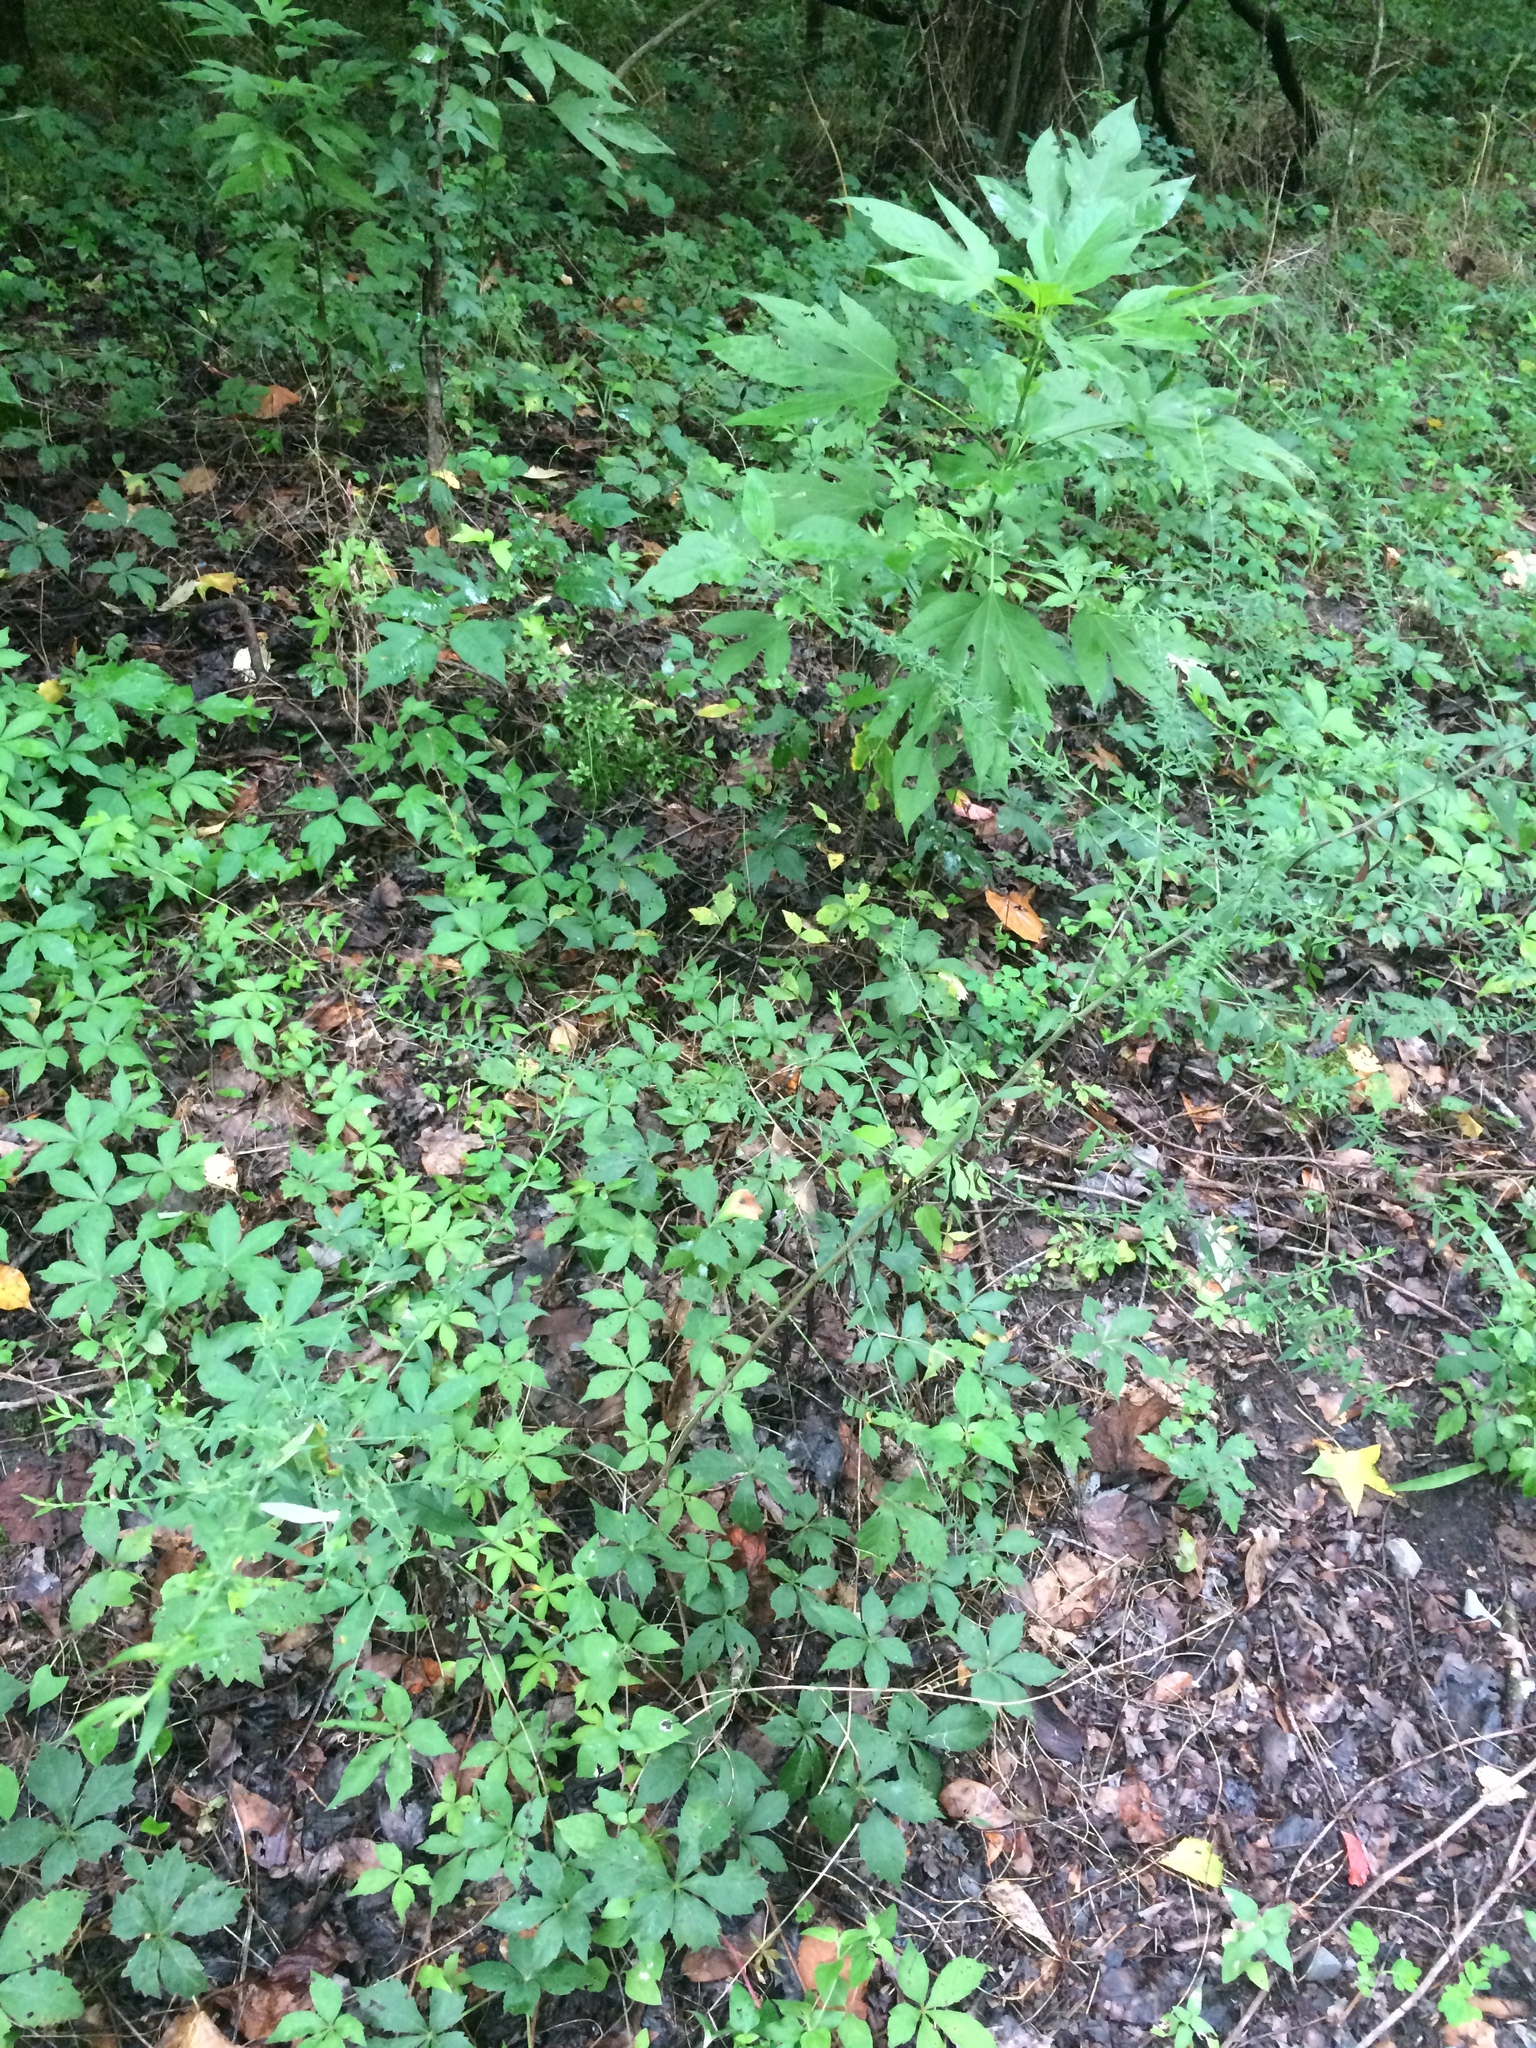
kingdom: Plantae
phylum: Tracheophyta
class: Magnoliopsida
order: Asterales
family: Asteraceae
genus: Ambrosia
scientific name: Ambrosia trifida
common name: Giant ragweed
